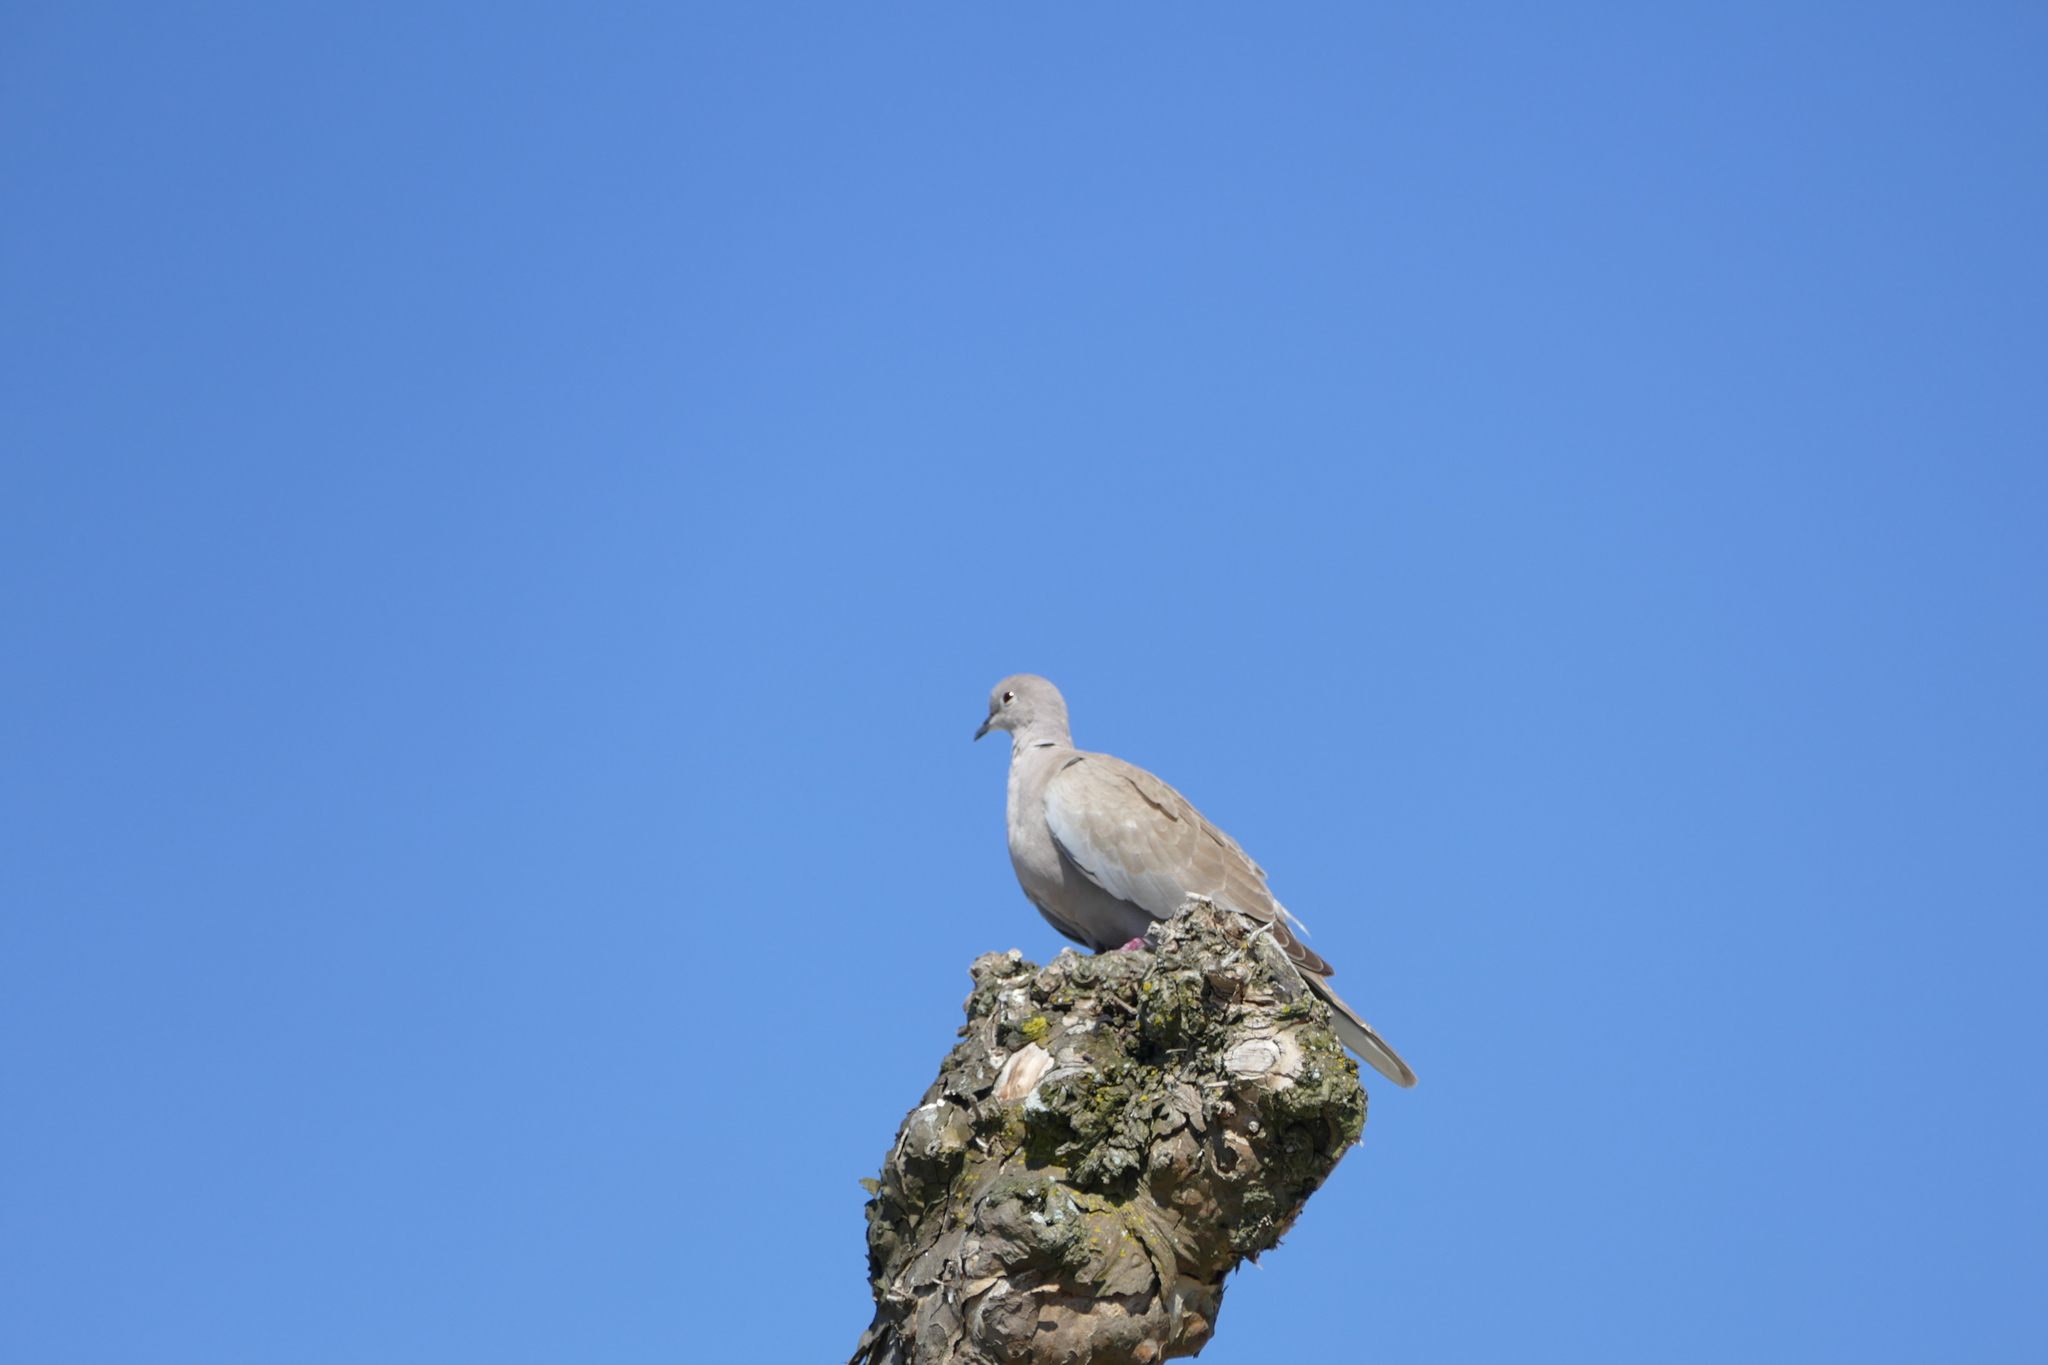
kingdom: Animalia
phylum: Chordata
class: Aves
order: Columbiformes
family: Columbidae
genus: Streptopelia
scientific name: Streptopelia decaocto
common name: Eurasian collared dove
